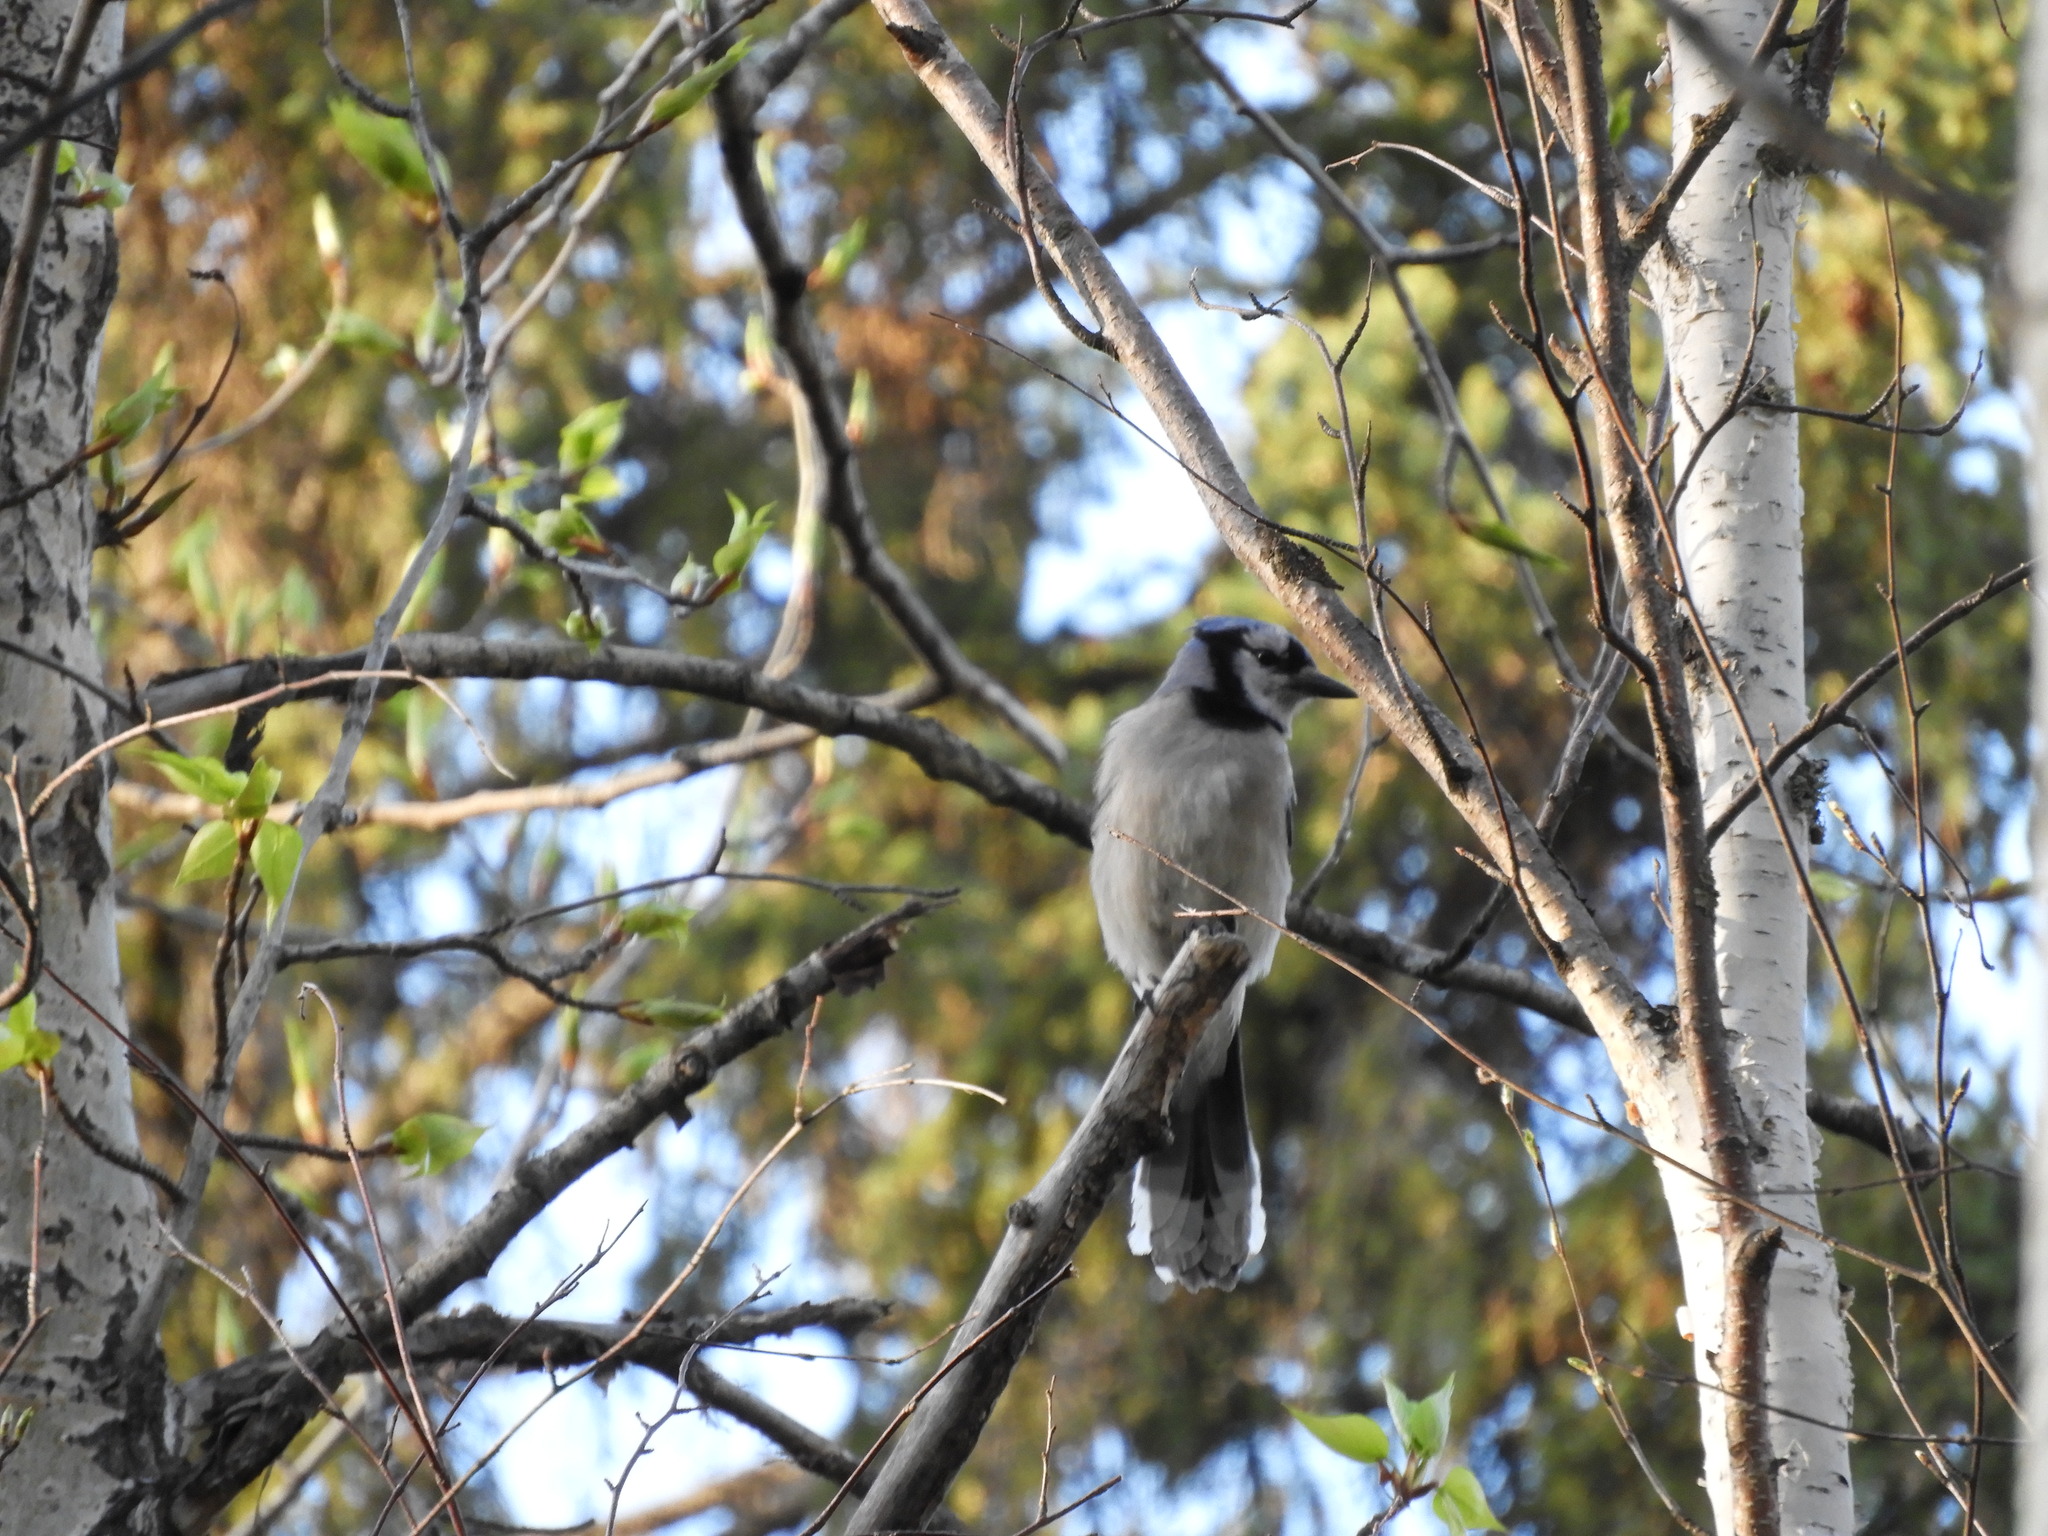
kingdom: Animalia
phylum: Chordata
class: Aves
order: Passeriformes
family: Corvidae
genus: Cyanocitta
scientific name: Cyanocitta cristata
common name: Blue jay
